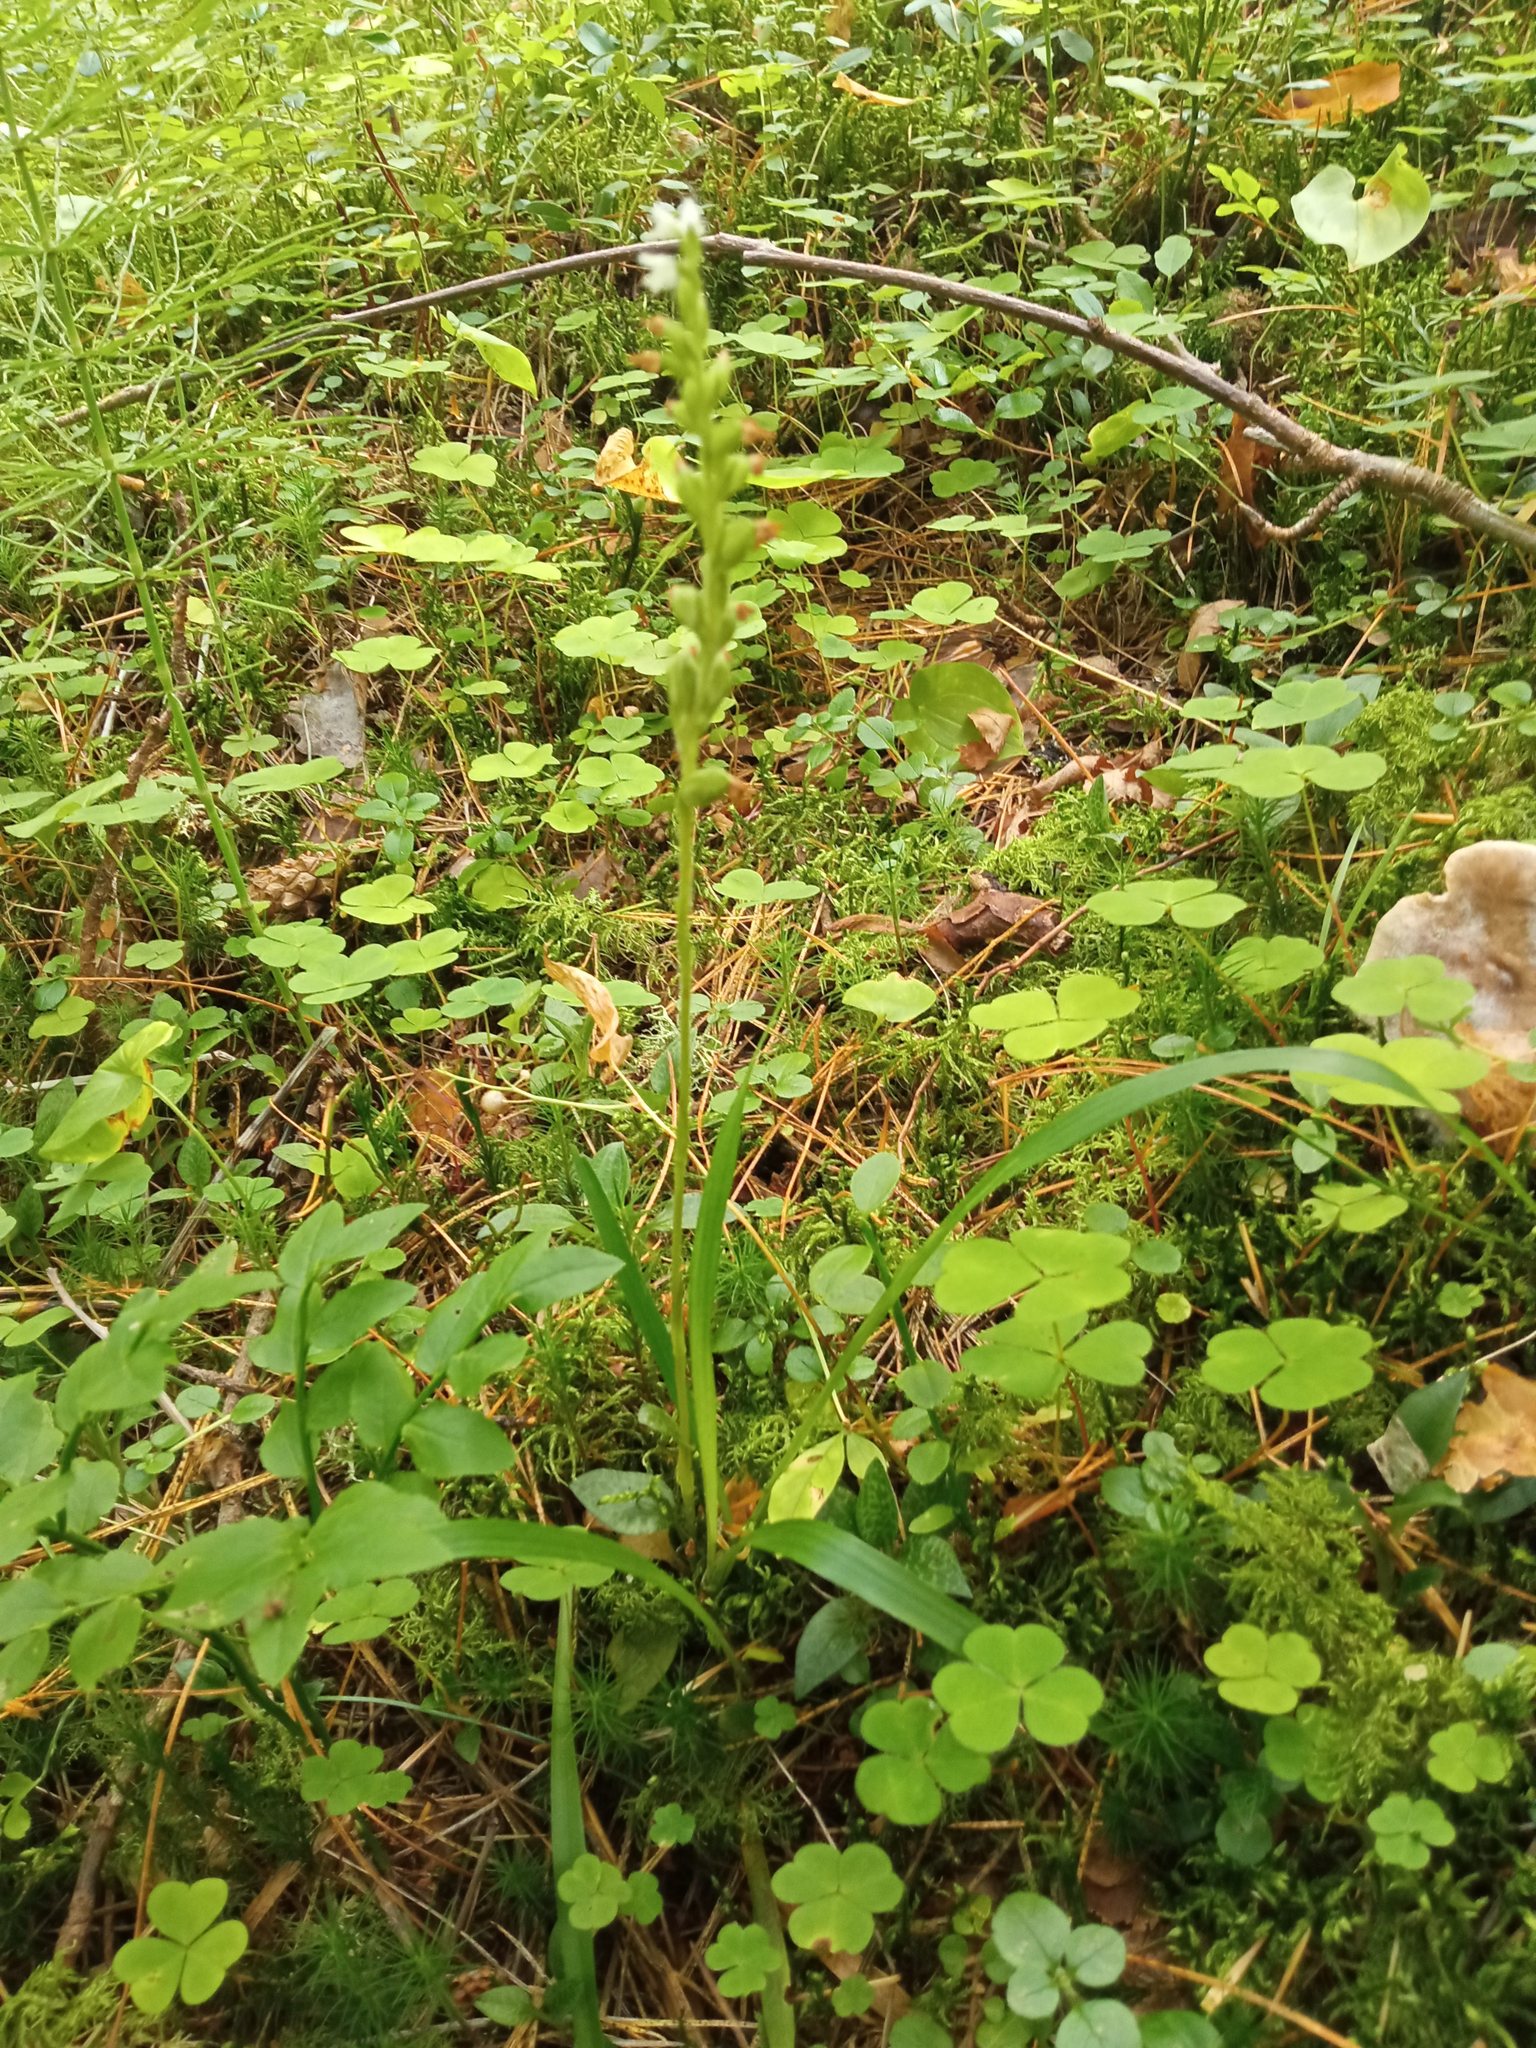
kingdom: Plantae
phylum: Tracheophyta
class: Liliopsida
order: Asparagales
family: Orchidaceae
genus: Goodyera
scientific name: Goodyera repens
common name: Creeping lady's-tresses
